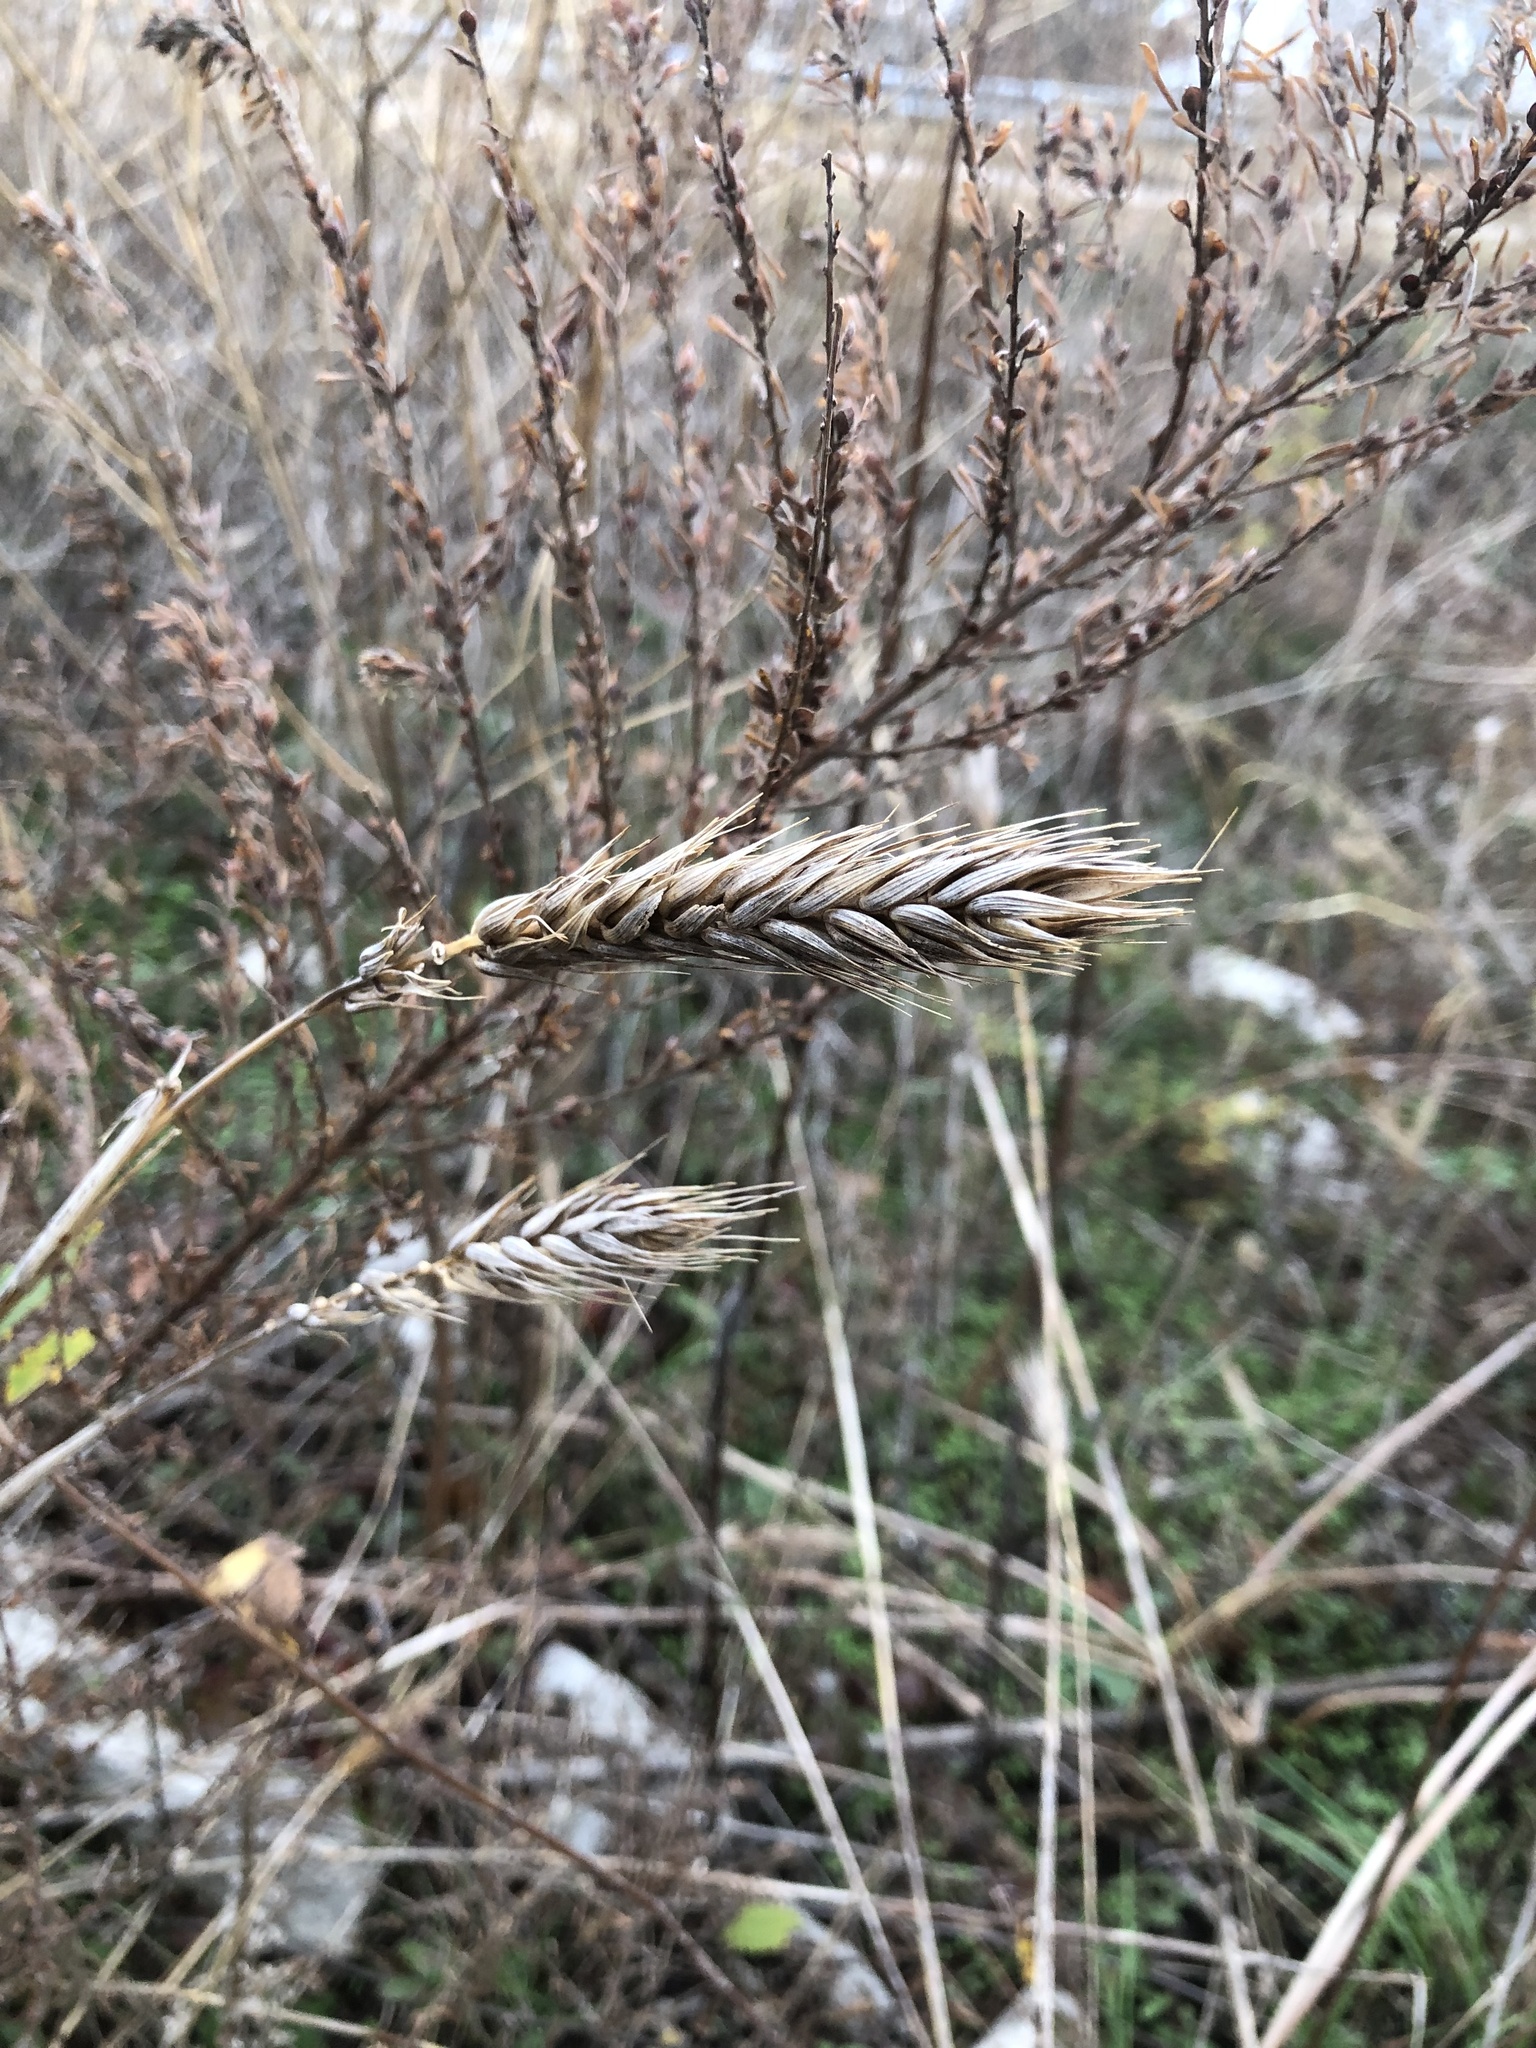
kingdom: Plantae
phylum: Tracheophyta
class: Liliopsida
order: Poales
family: Poaceae
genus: Elymus
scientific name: Elymus virginicus
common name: Common eastern wildrye
